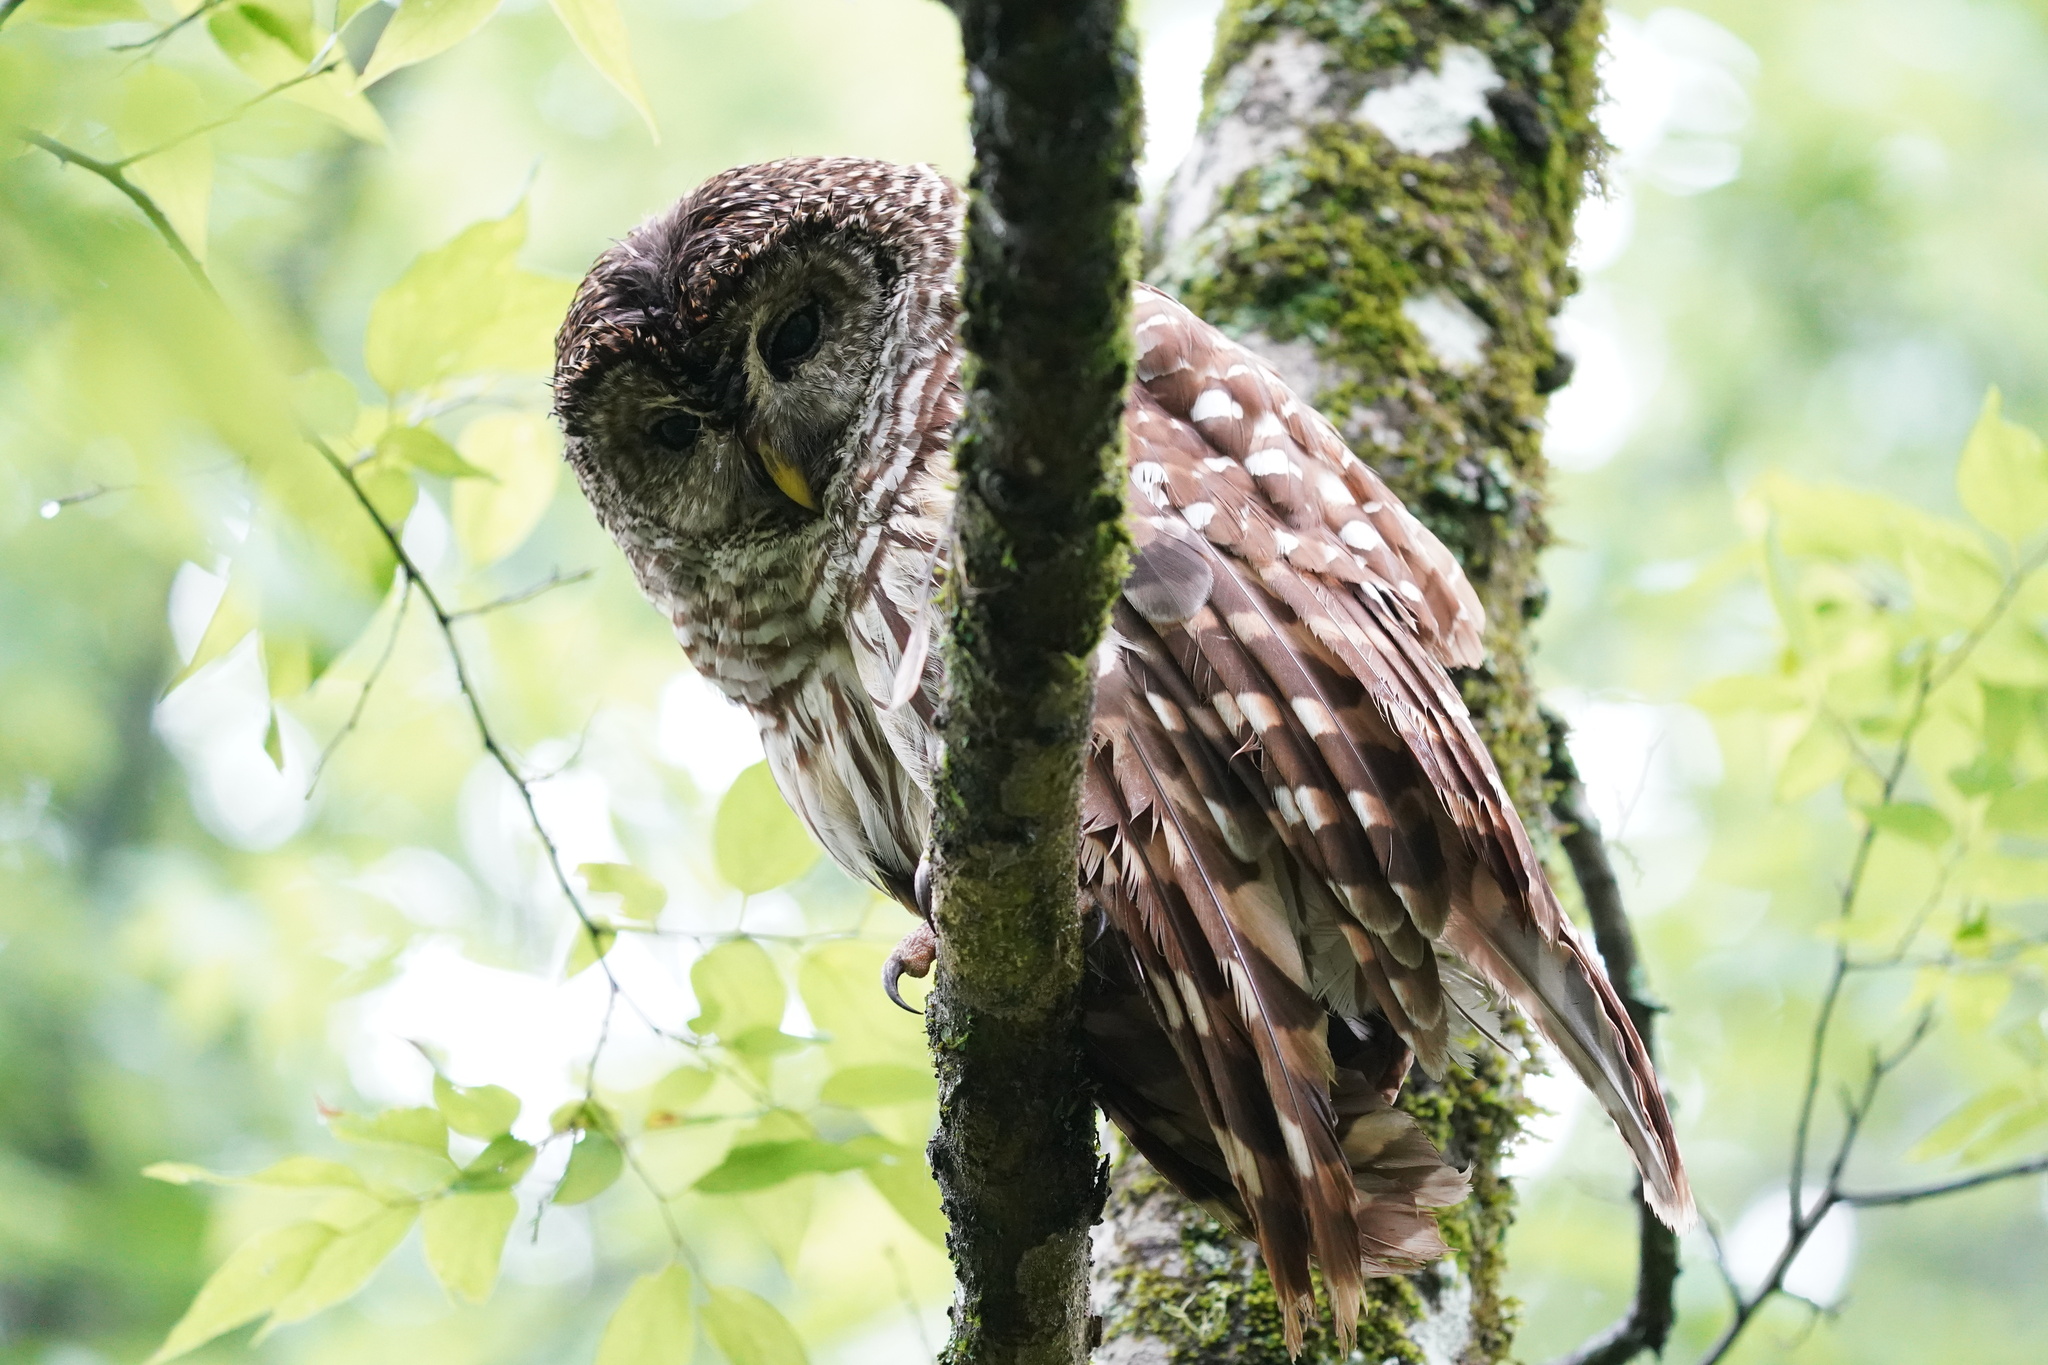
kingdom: Animalia
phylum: Chordata
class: Aves
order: Strigiformes
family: Strigidae
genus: Strix
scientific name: Strix varia
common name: Barred owl
